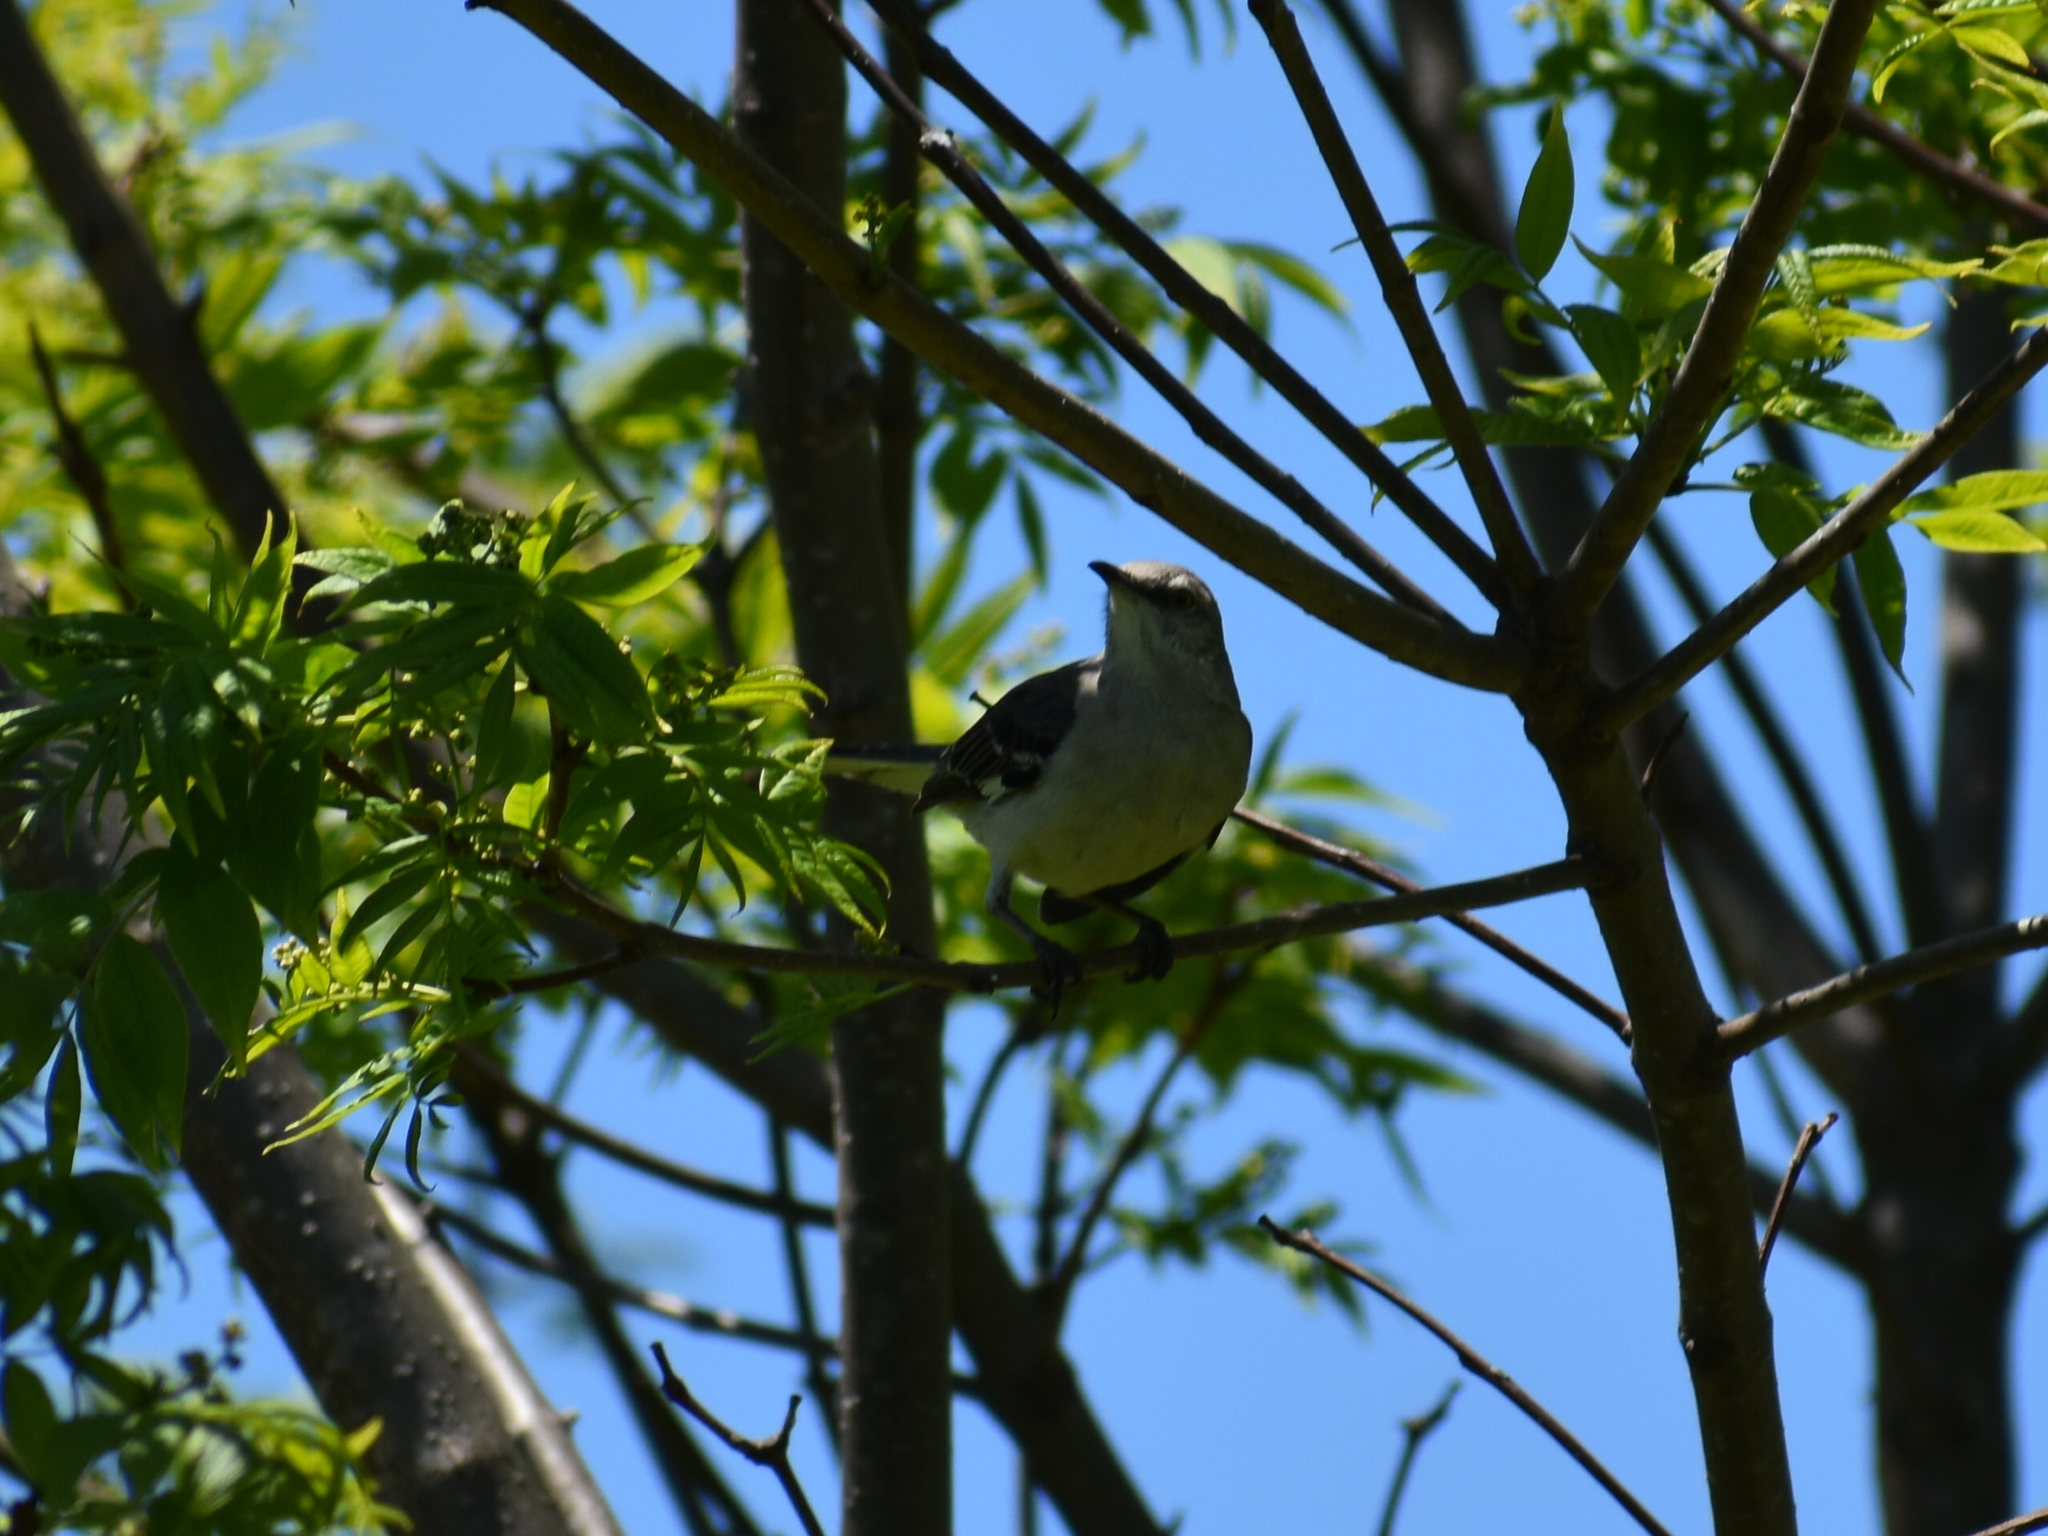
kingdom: Animalia
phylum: Chordata
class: Aves
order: Passeriformes
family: Mimidae
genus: Mimus
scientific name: Mimus polyglottos
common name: Northern mockingbird
